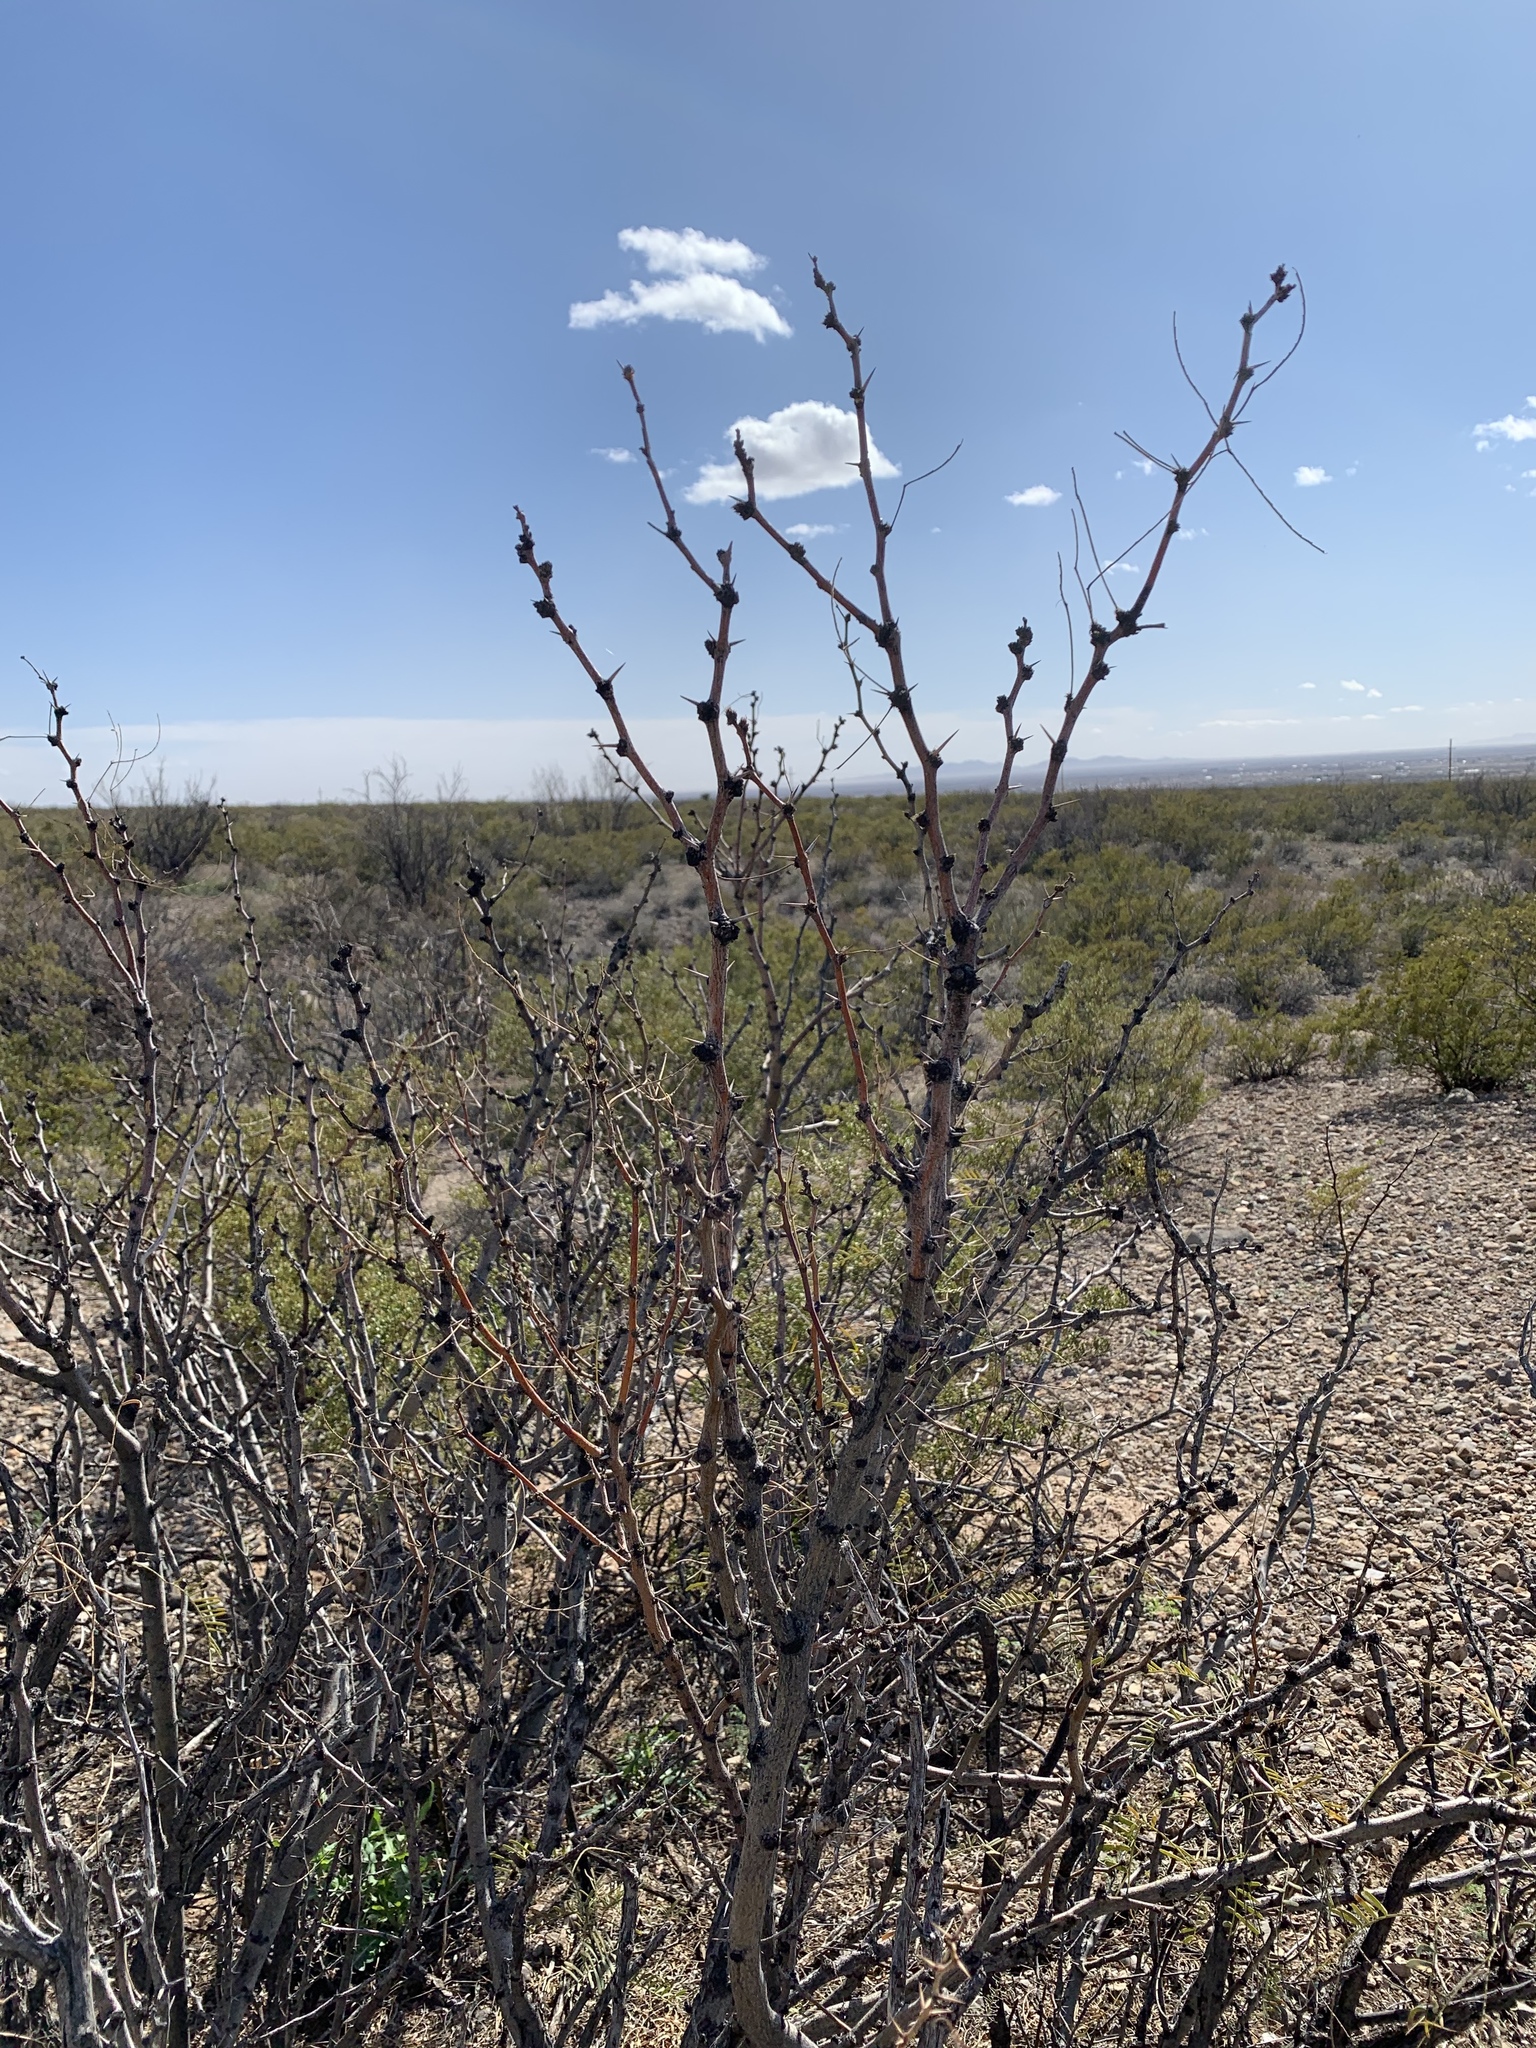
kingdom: Plantae
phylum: Tracheophyta
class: Magnoliopsida
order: Fabales
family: Fabaceae
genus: Prosopis
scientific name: Prosopis glandulosa
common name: Honey mesquite
